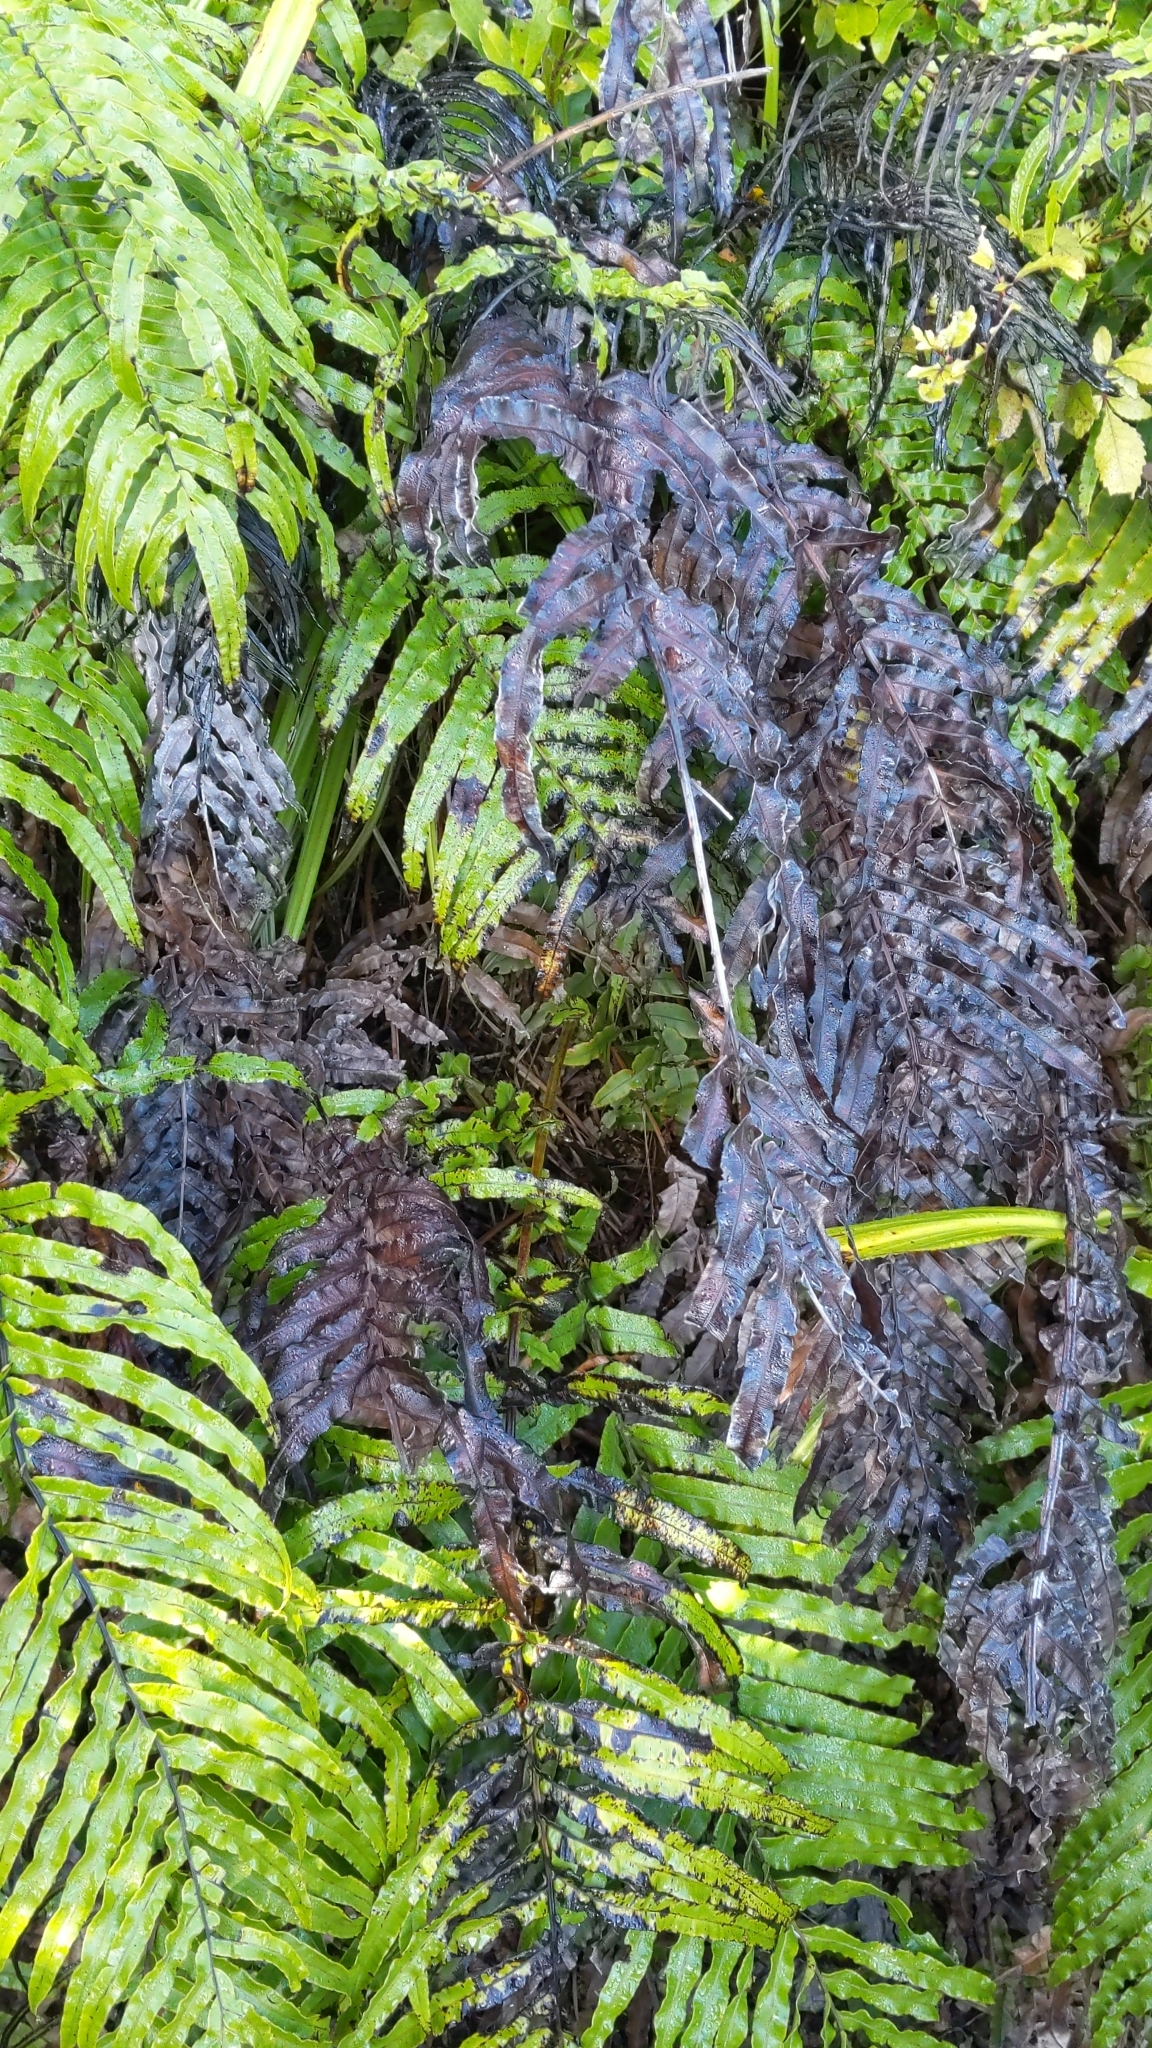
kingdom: Plantae
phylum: Tracheophyta
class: Polypodiopsida
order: Polypodiales
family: Blechnaceae
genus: Parablechnum
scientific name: Parablechnum novae-zelandiae
